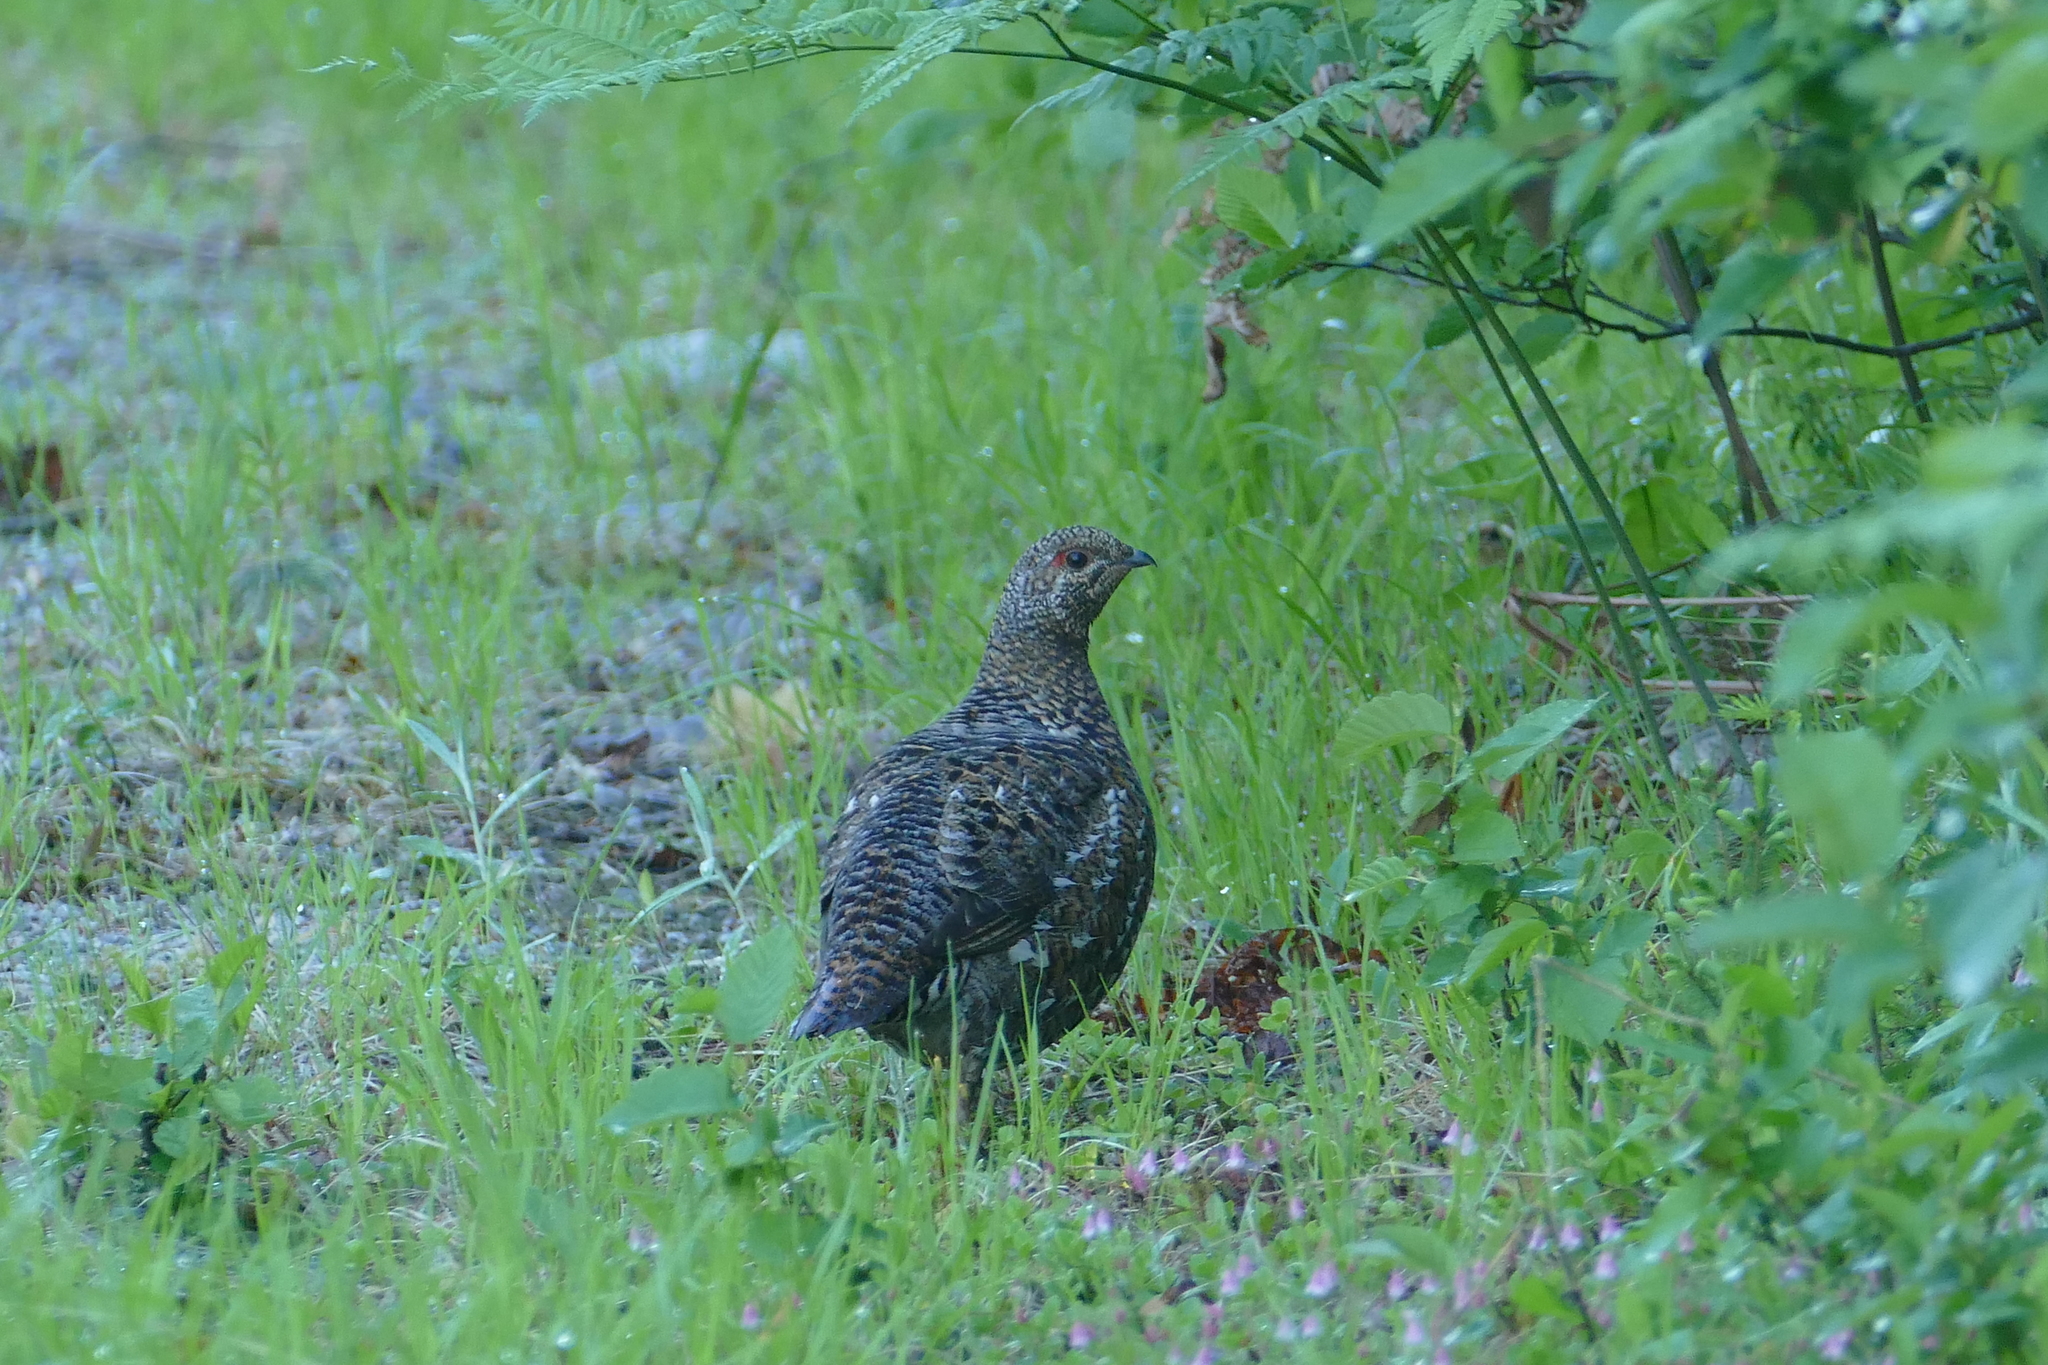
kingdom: Animalia
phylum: Chordata
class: Aves
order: Galliformes
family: Phasianidae
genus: Canachites
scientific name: Canachites canadensis
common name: Spruce grouse
